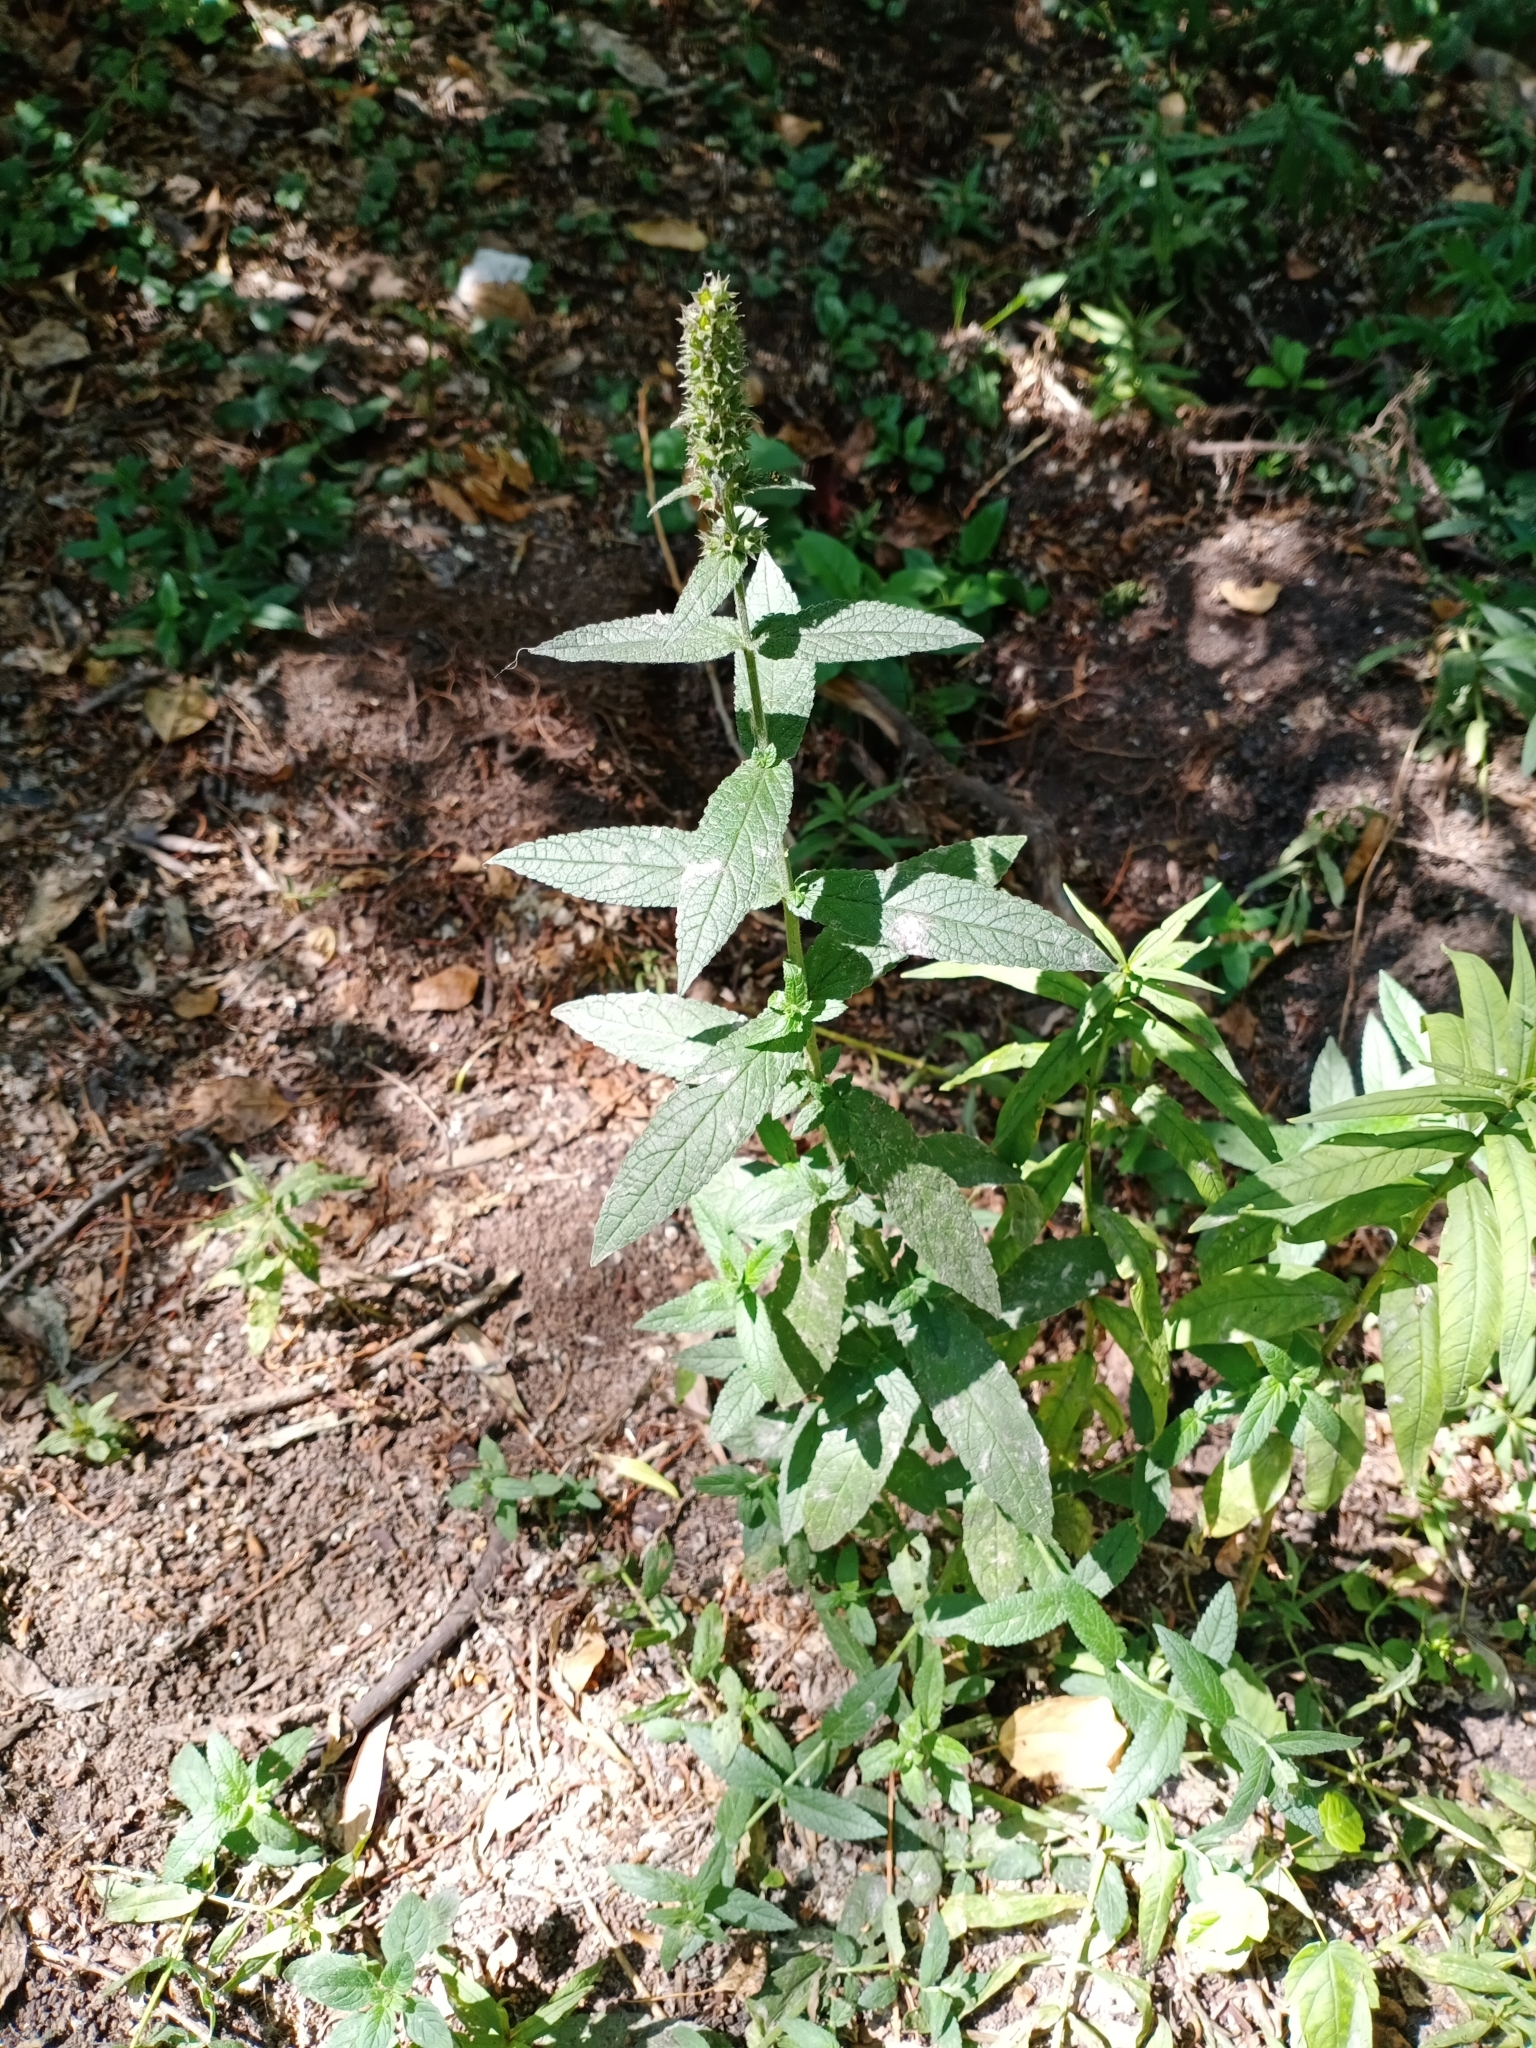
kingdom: Plantae
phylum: Tracheophyta
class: Magnoliopsida
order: Lamiales
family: Lamiaceae
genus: Stachys
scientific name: Stachys palustris
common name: Marsh woundwort
